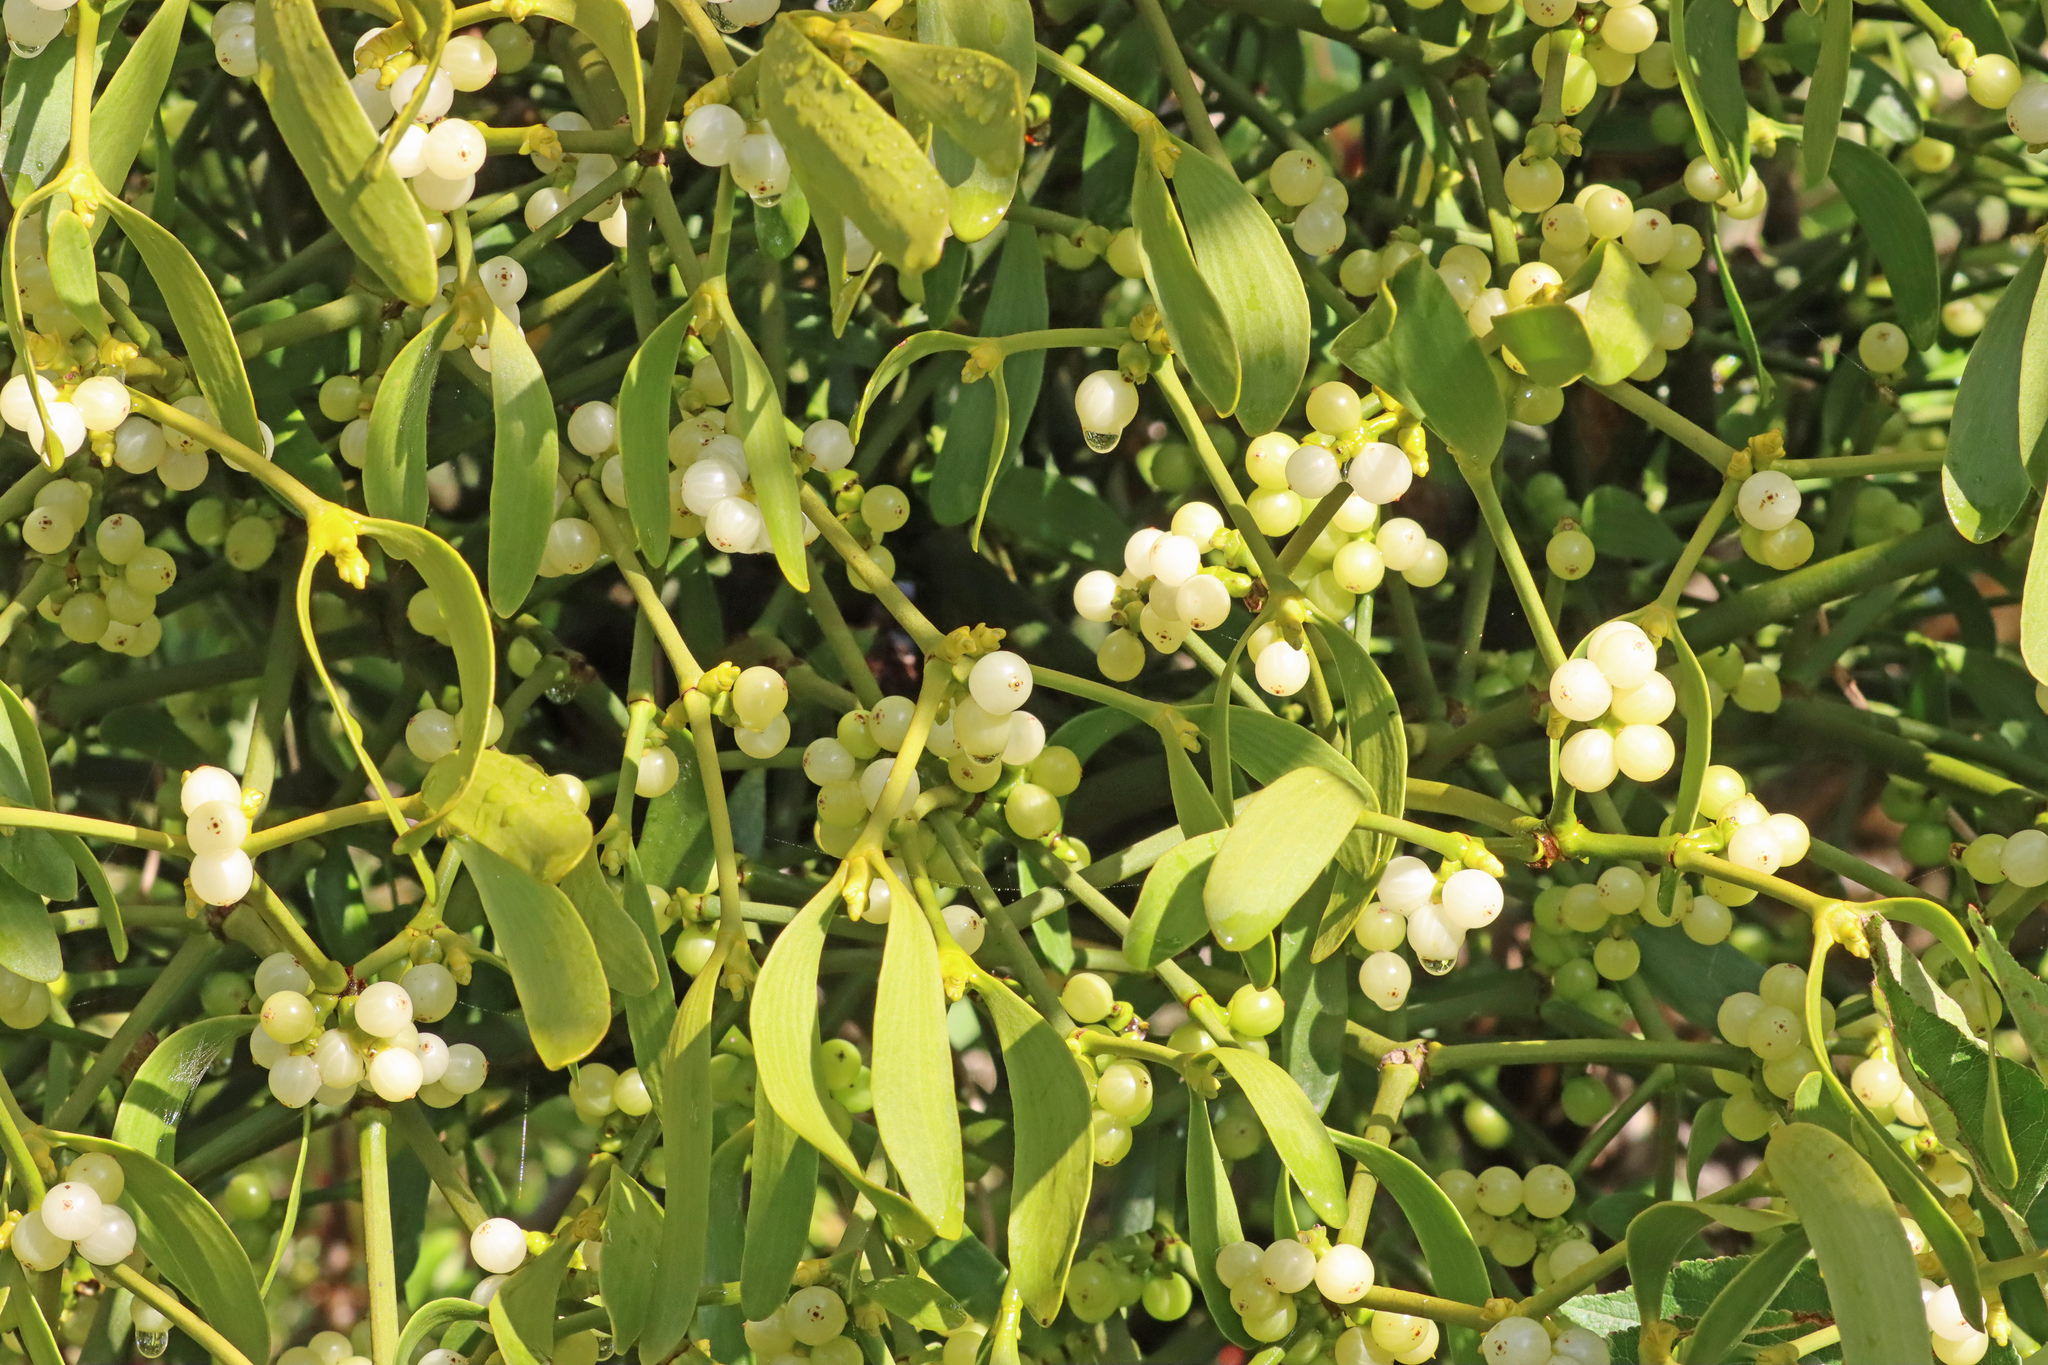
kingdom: Plantae
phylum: Tracheophyta
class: Magnoliopsida
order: Santalales
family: Viscaceae
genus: Viscum
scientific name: Viscum album
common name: Mistletoe
